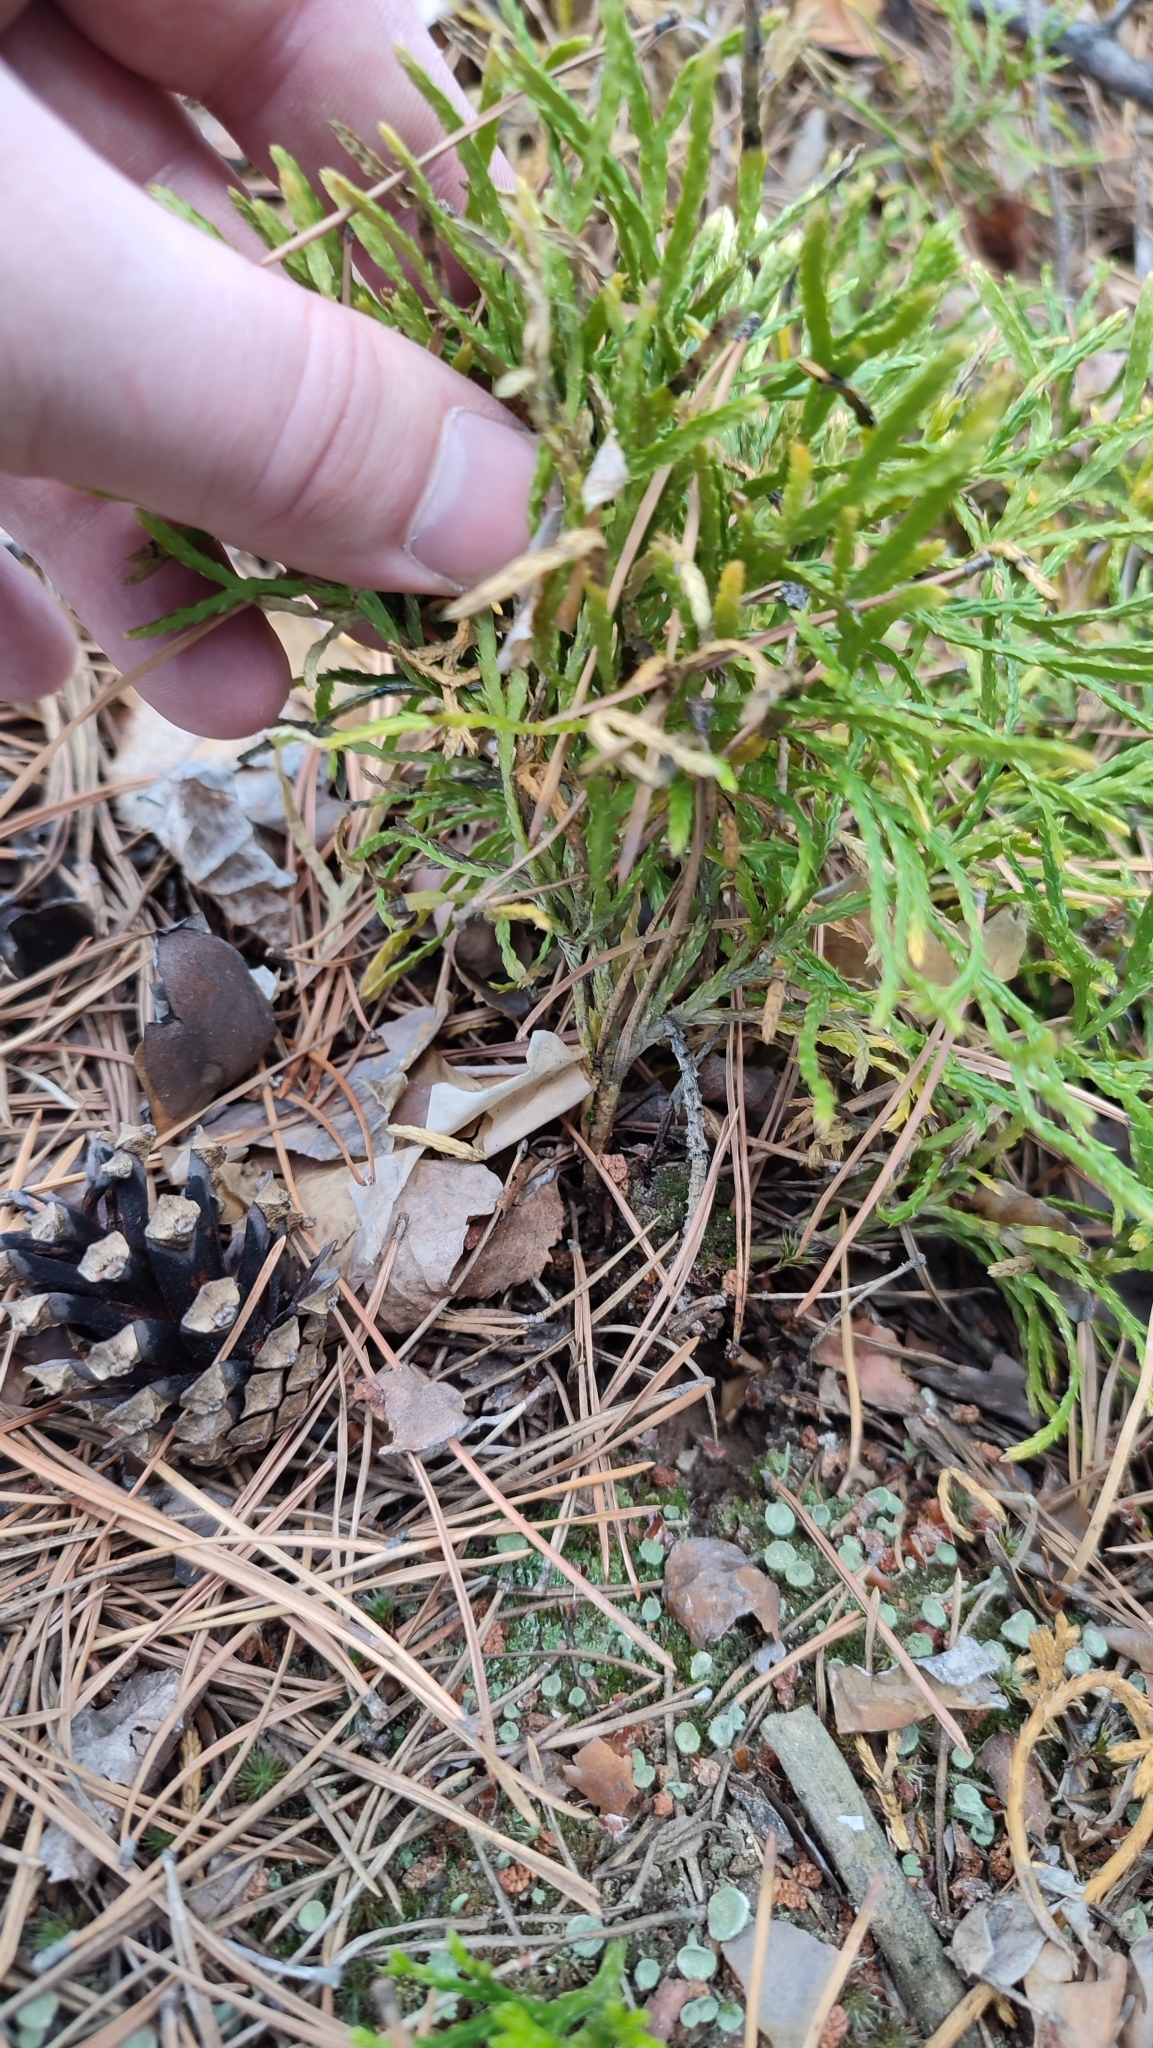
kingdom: Plantae
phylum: Tracheophyta
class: Lycopodiopsida
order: Lycopodiales
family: Lycopodiaceae
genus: Diphasiastrum
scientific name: Diphasiastrum complanatum
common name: Northern running-pine
